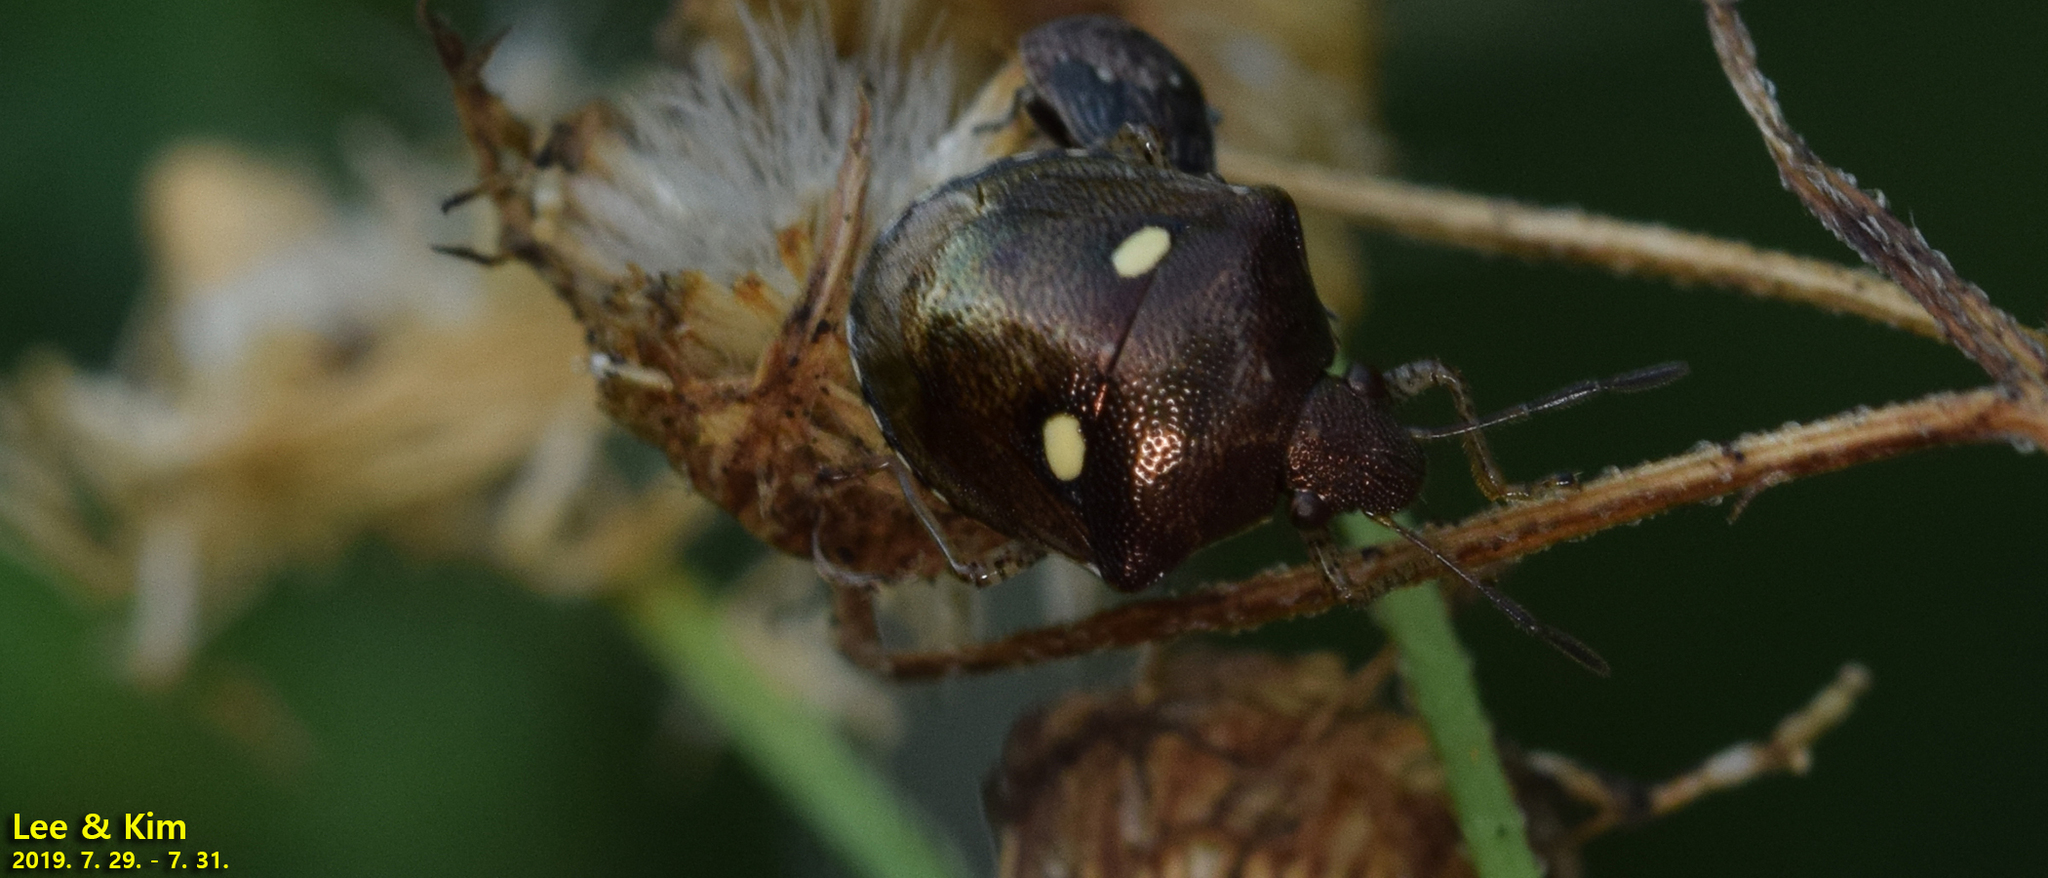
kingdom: Animalia
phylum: Arthropoda
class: Insecta
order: Hemiptera
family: Pentatomidae
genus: Eysarcoris
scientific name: Eysarcoris annamita
